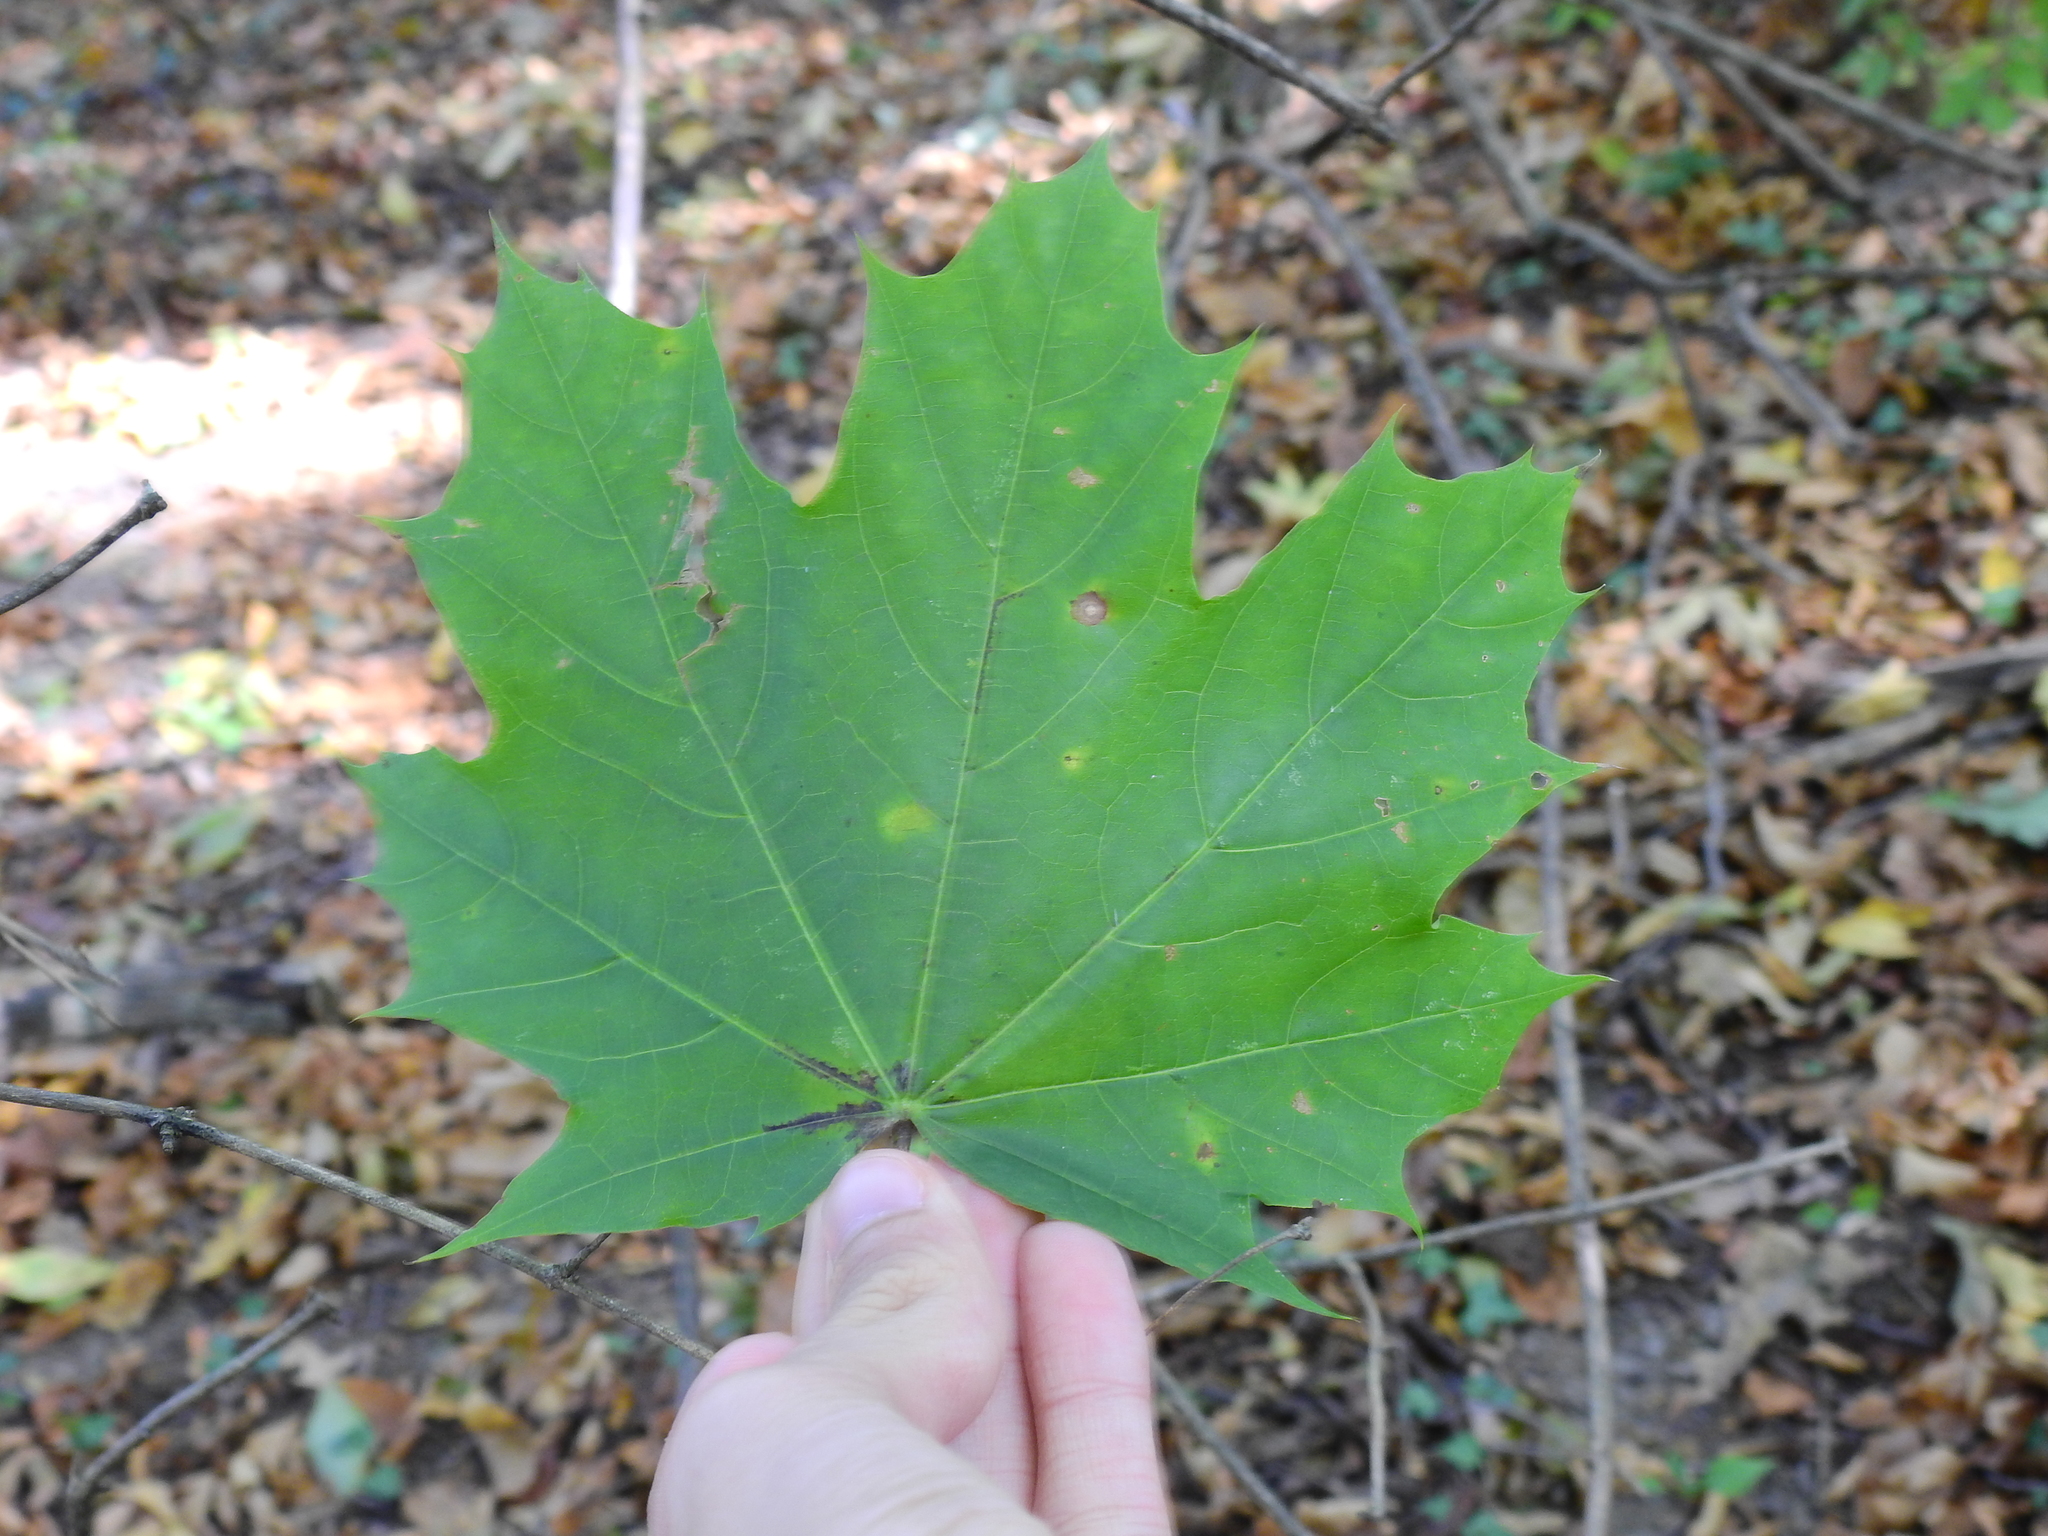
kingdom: Plantae
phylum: Tracheophyta
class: Magnoliopsida
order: Sapindales
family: Sapindaceae
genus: Acer
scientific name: Acer platanoides
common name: Norway maple
